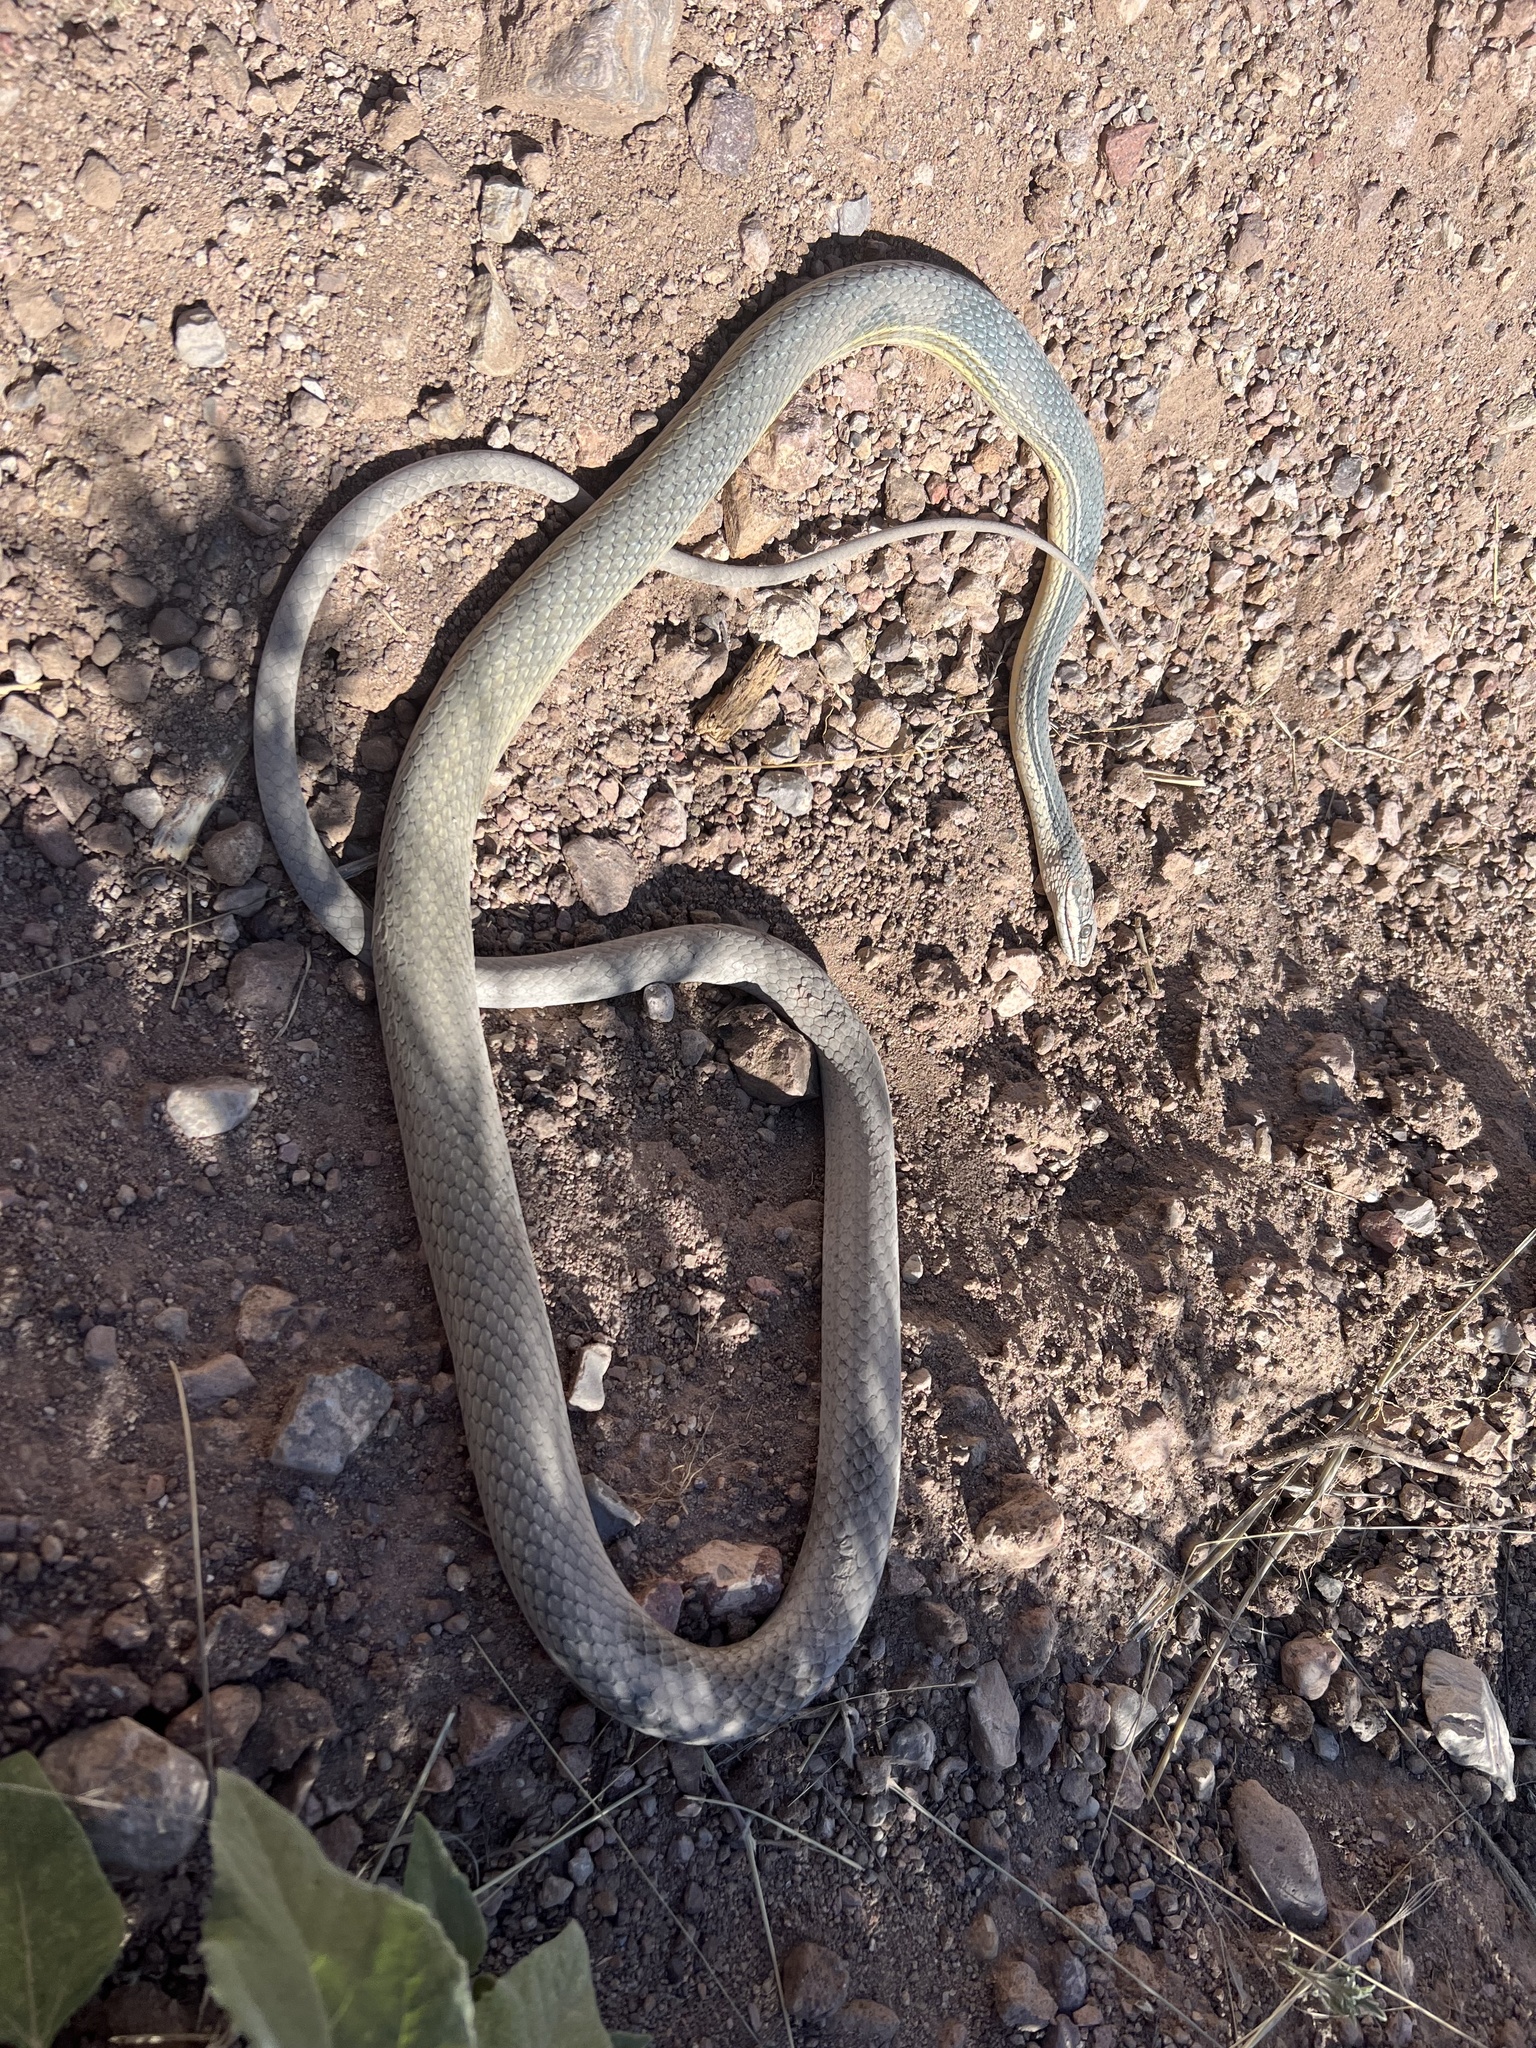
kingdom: Animalia
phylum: Chordata
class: Squamata
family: Colubridae
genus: Masticophis
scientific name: Masticophis bilineatus
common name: Sonoran whipsnake
